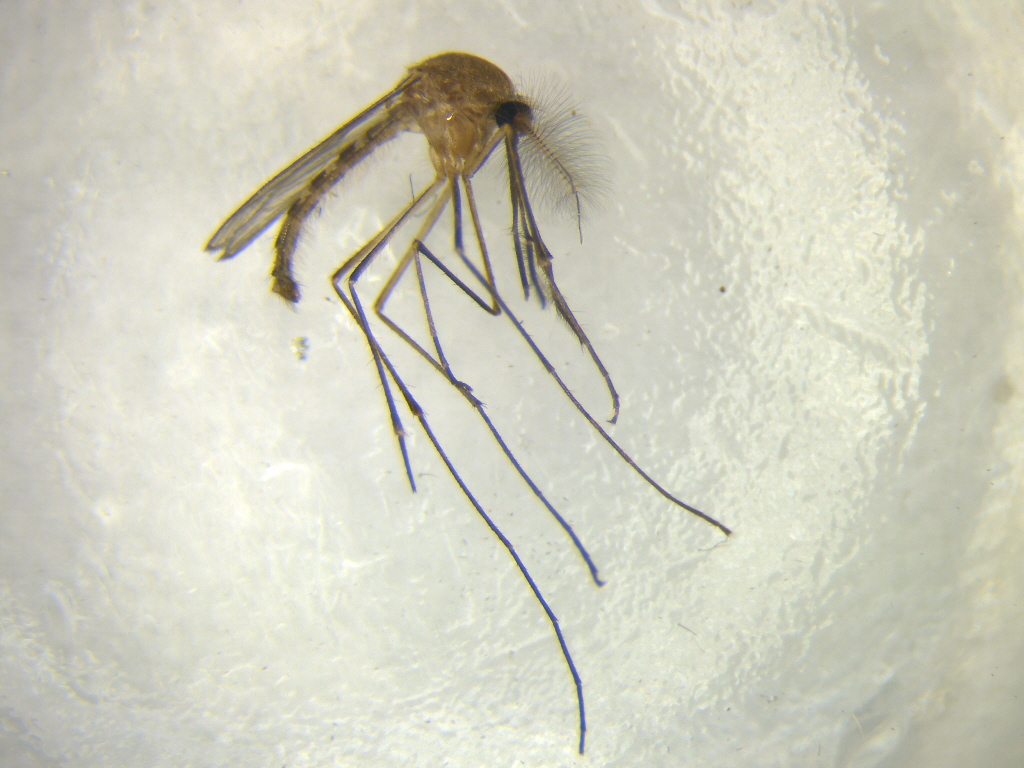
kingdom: Animalia
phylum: Arthropoda
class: Insecta
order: Diptera
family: Culicidae
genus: Culex
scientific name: Culex quinquefasciatus
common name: Southern house mosquito
